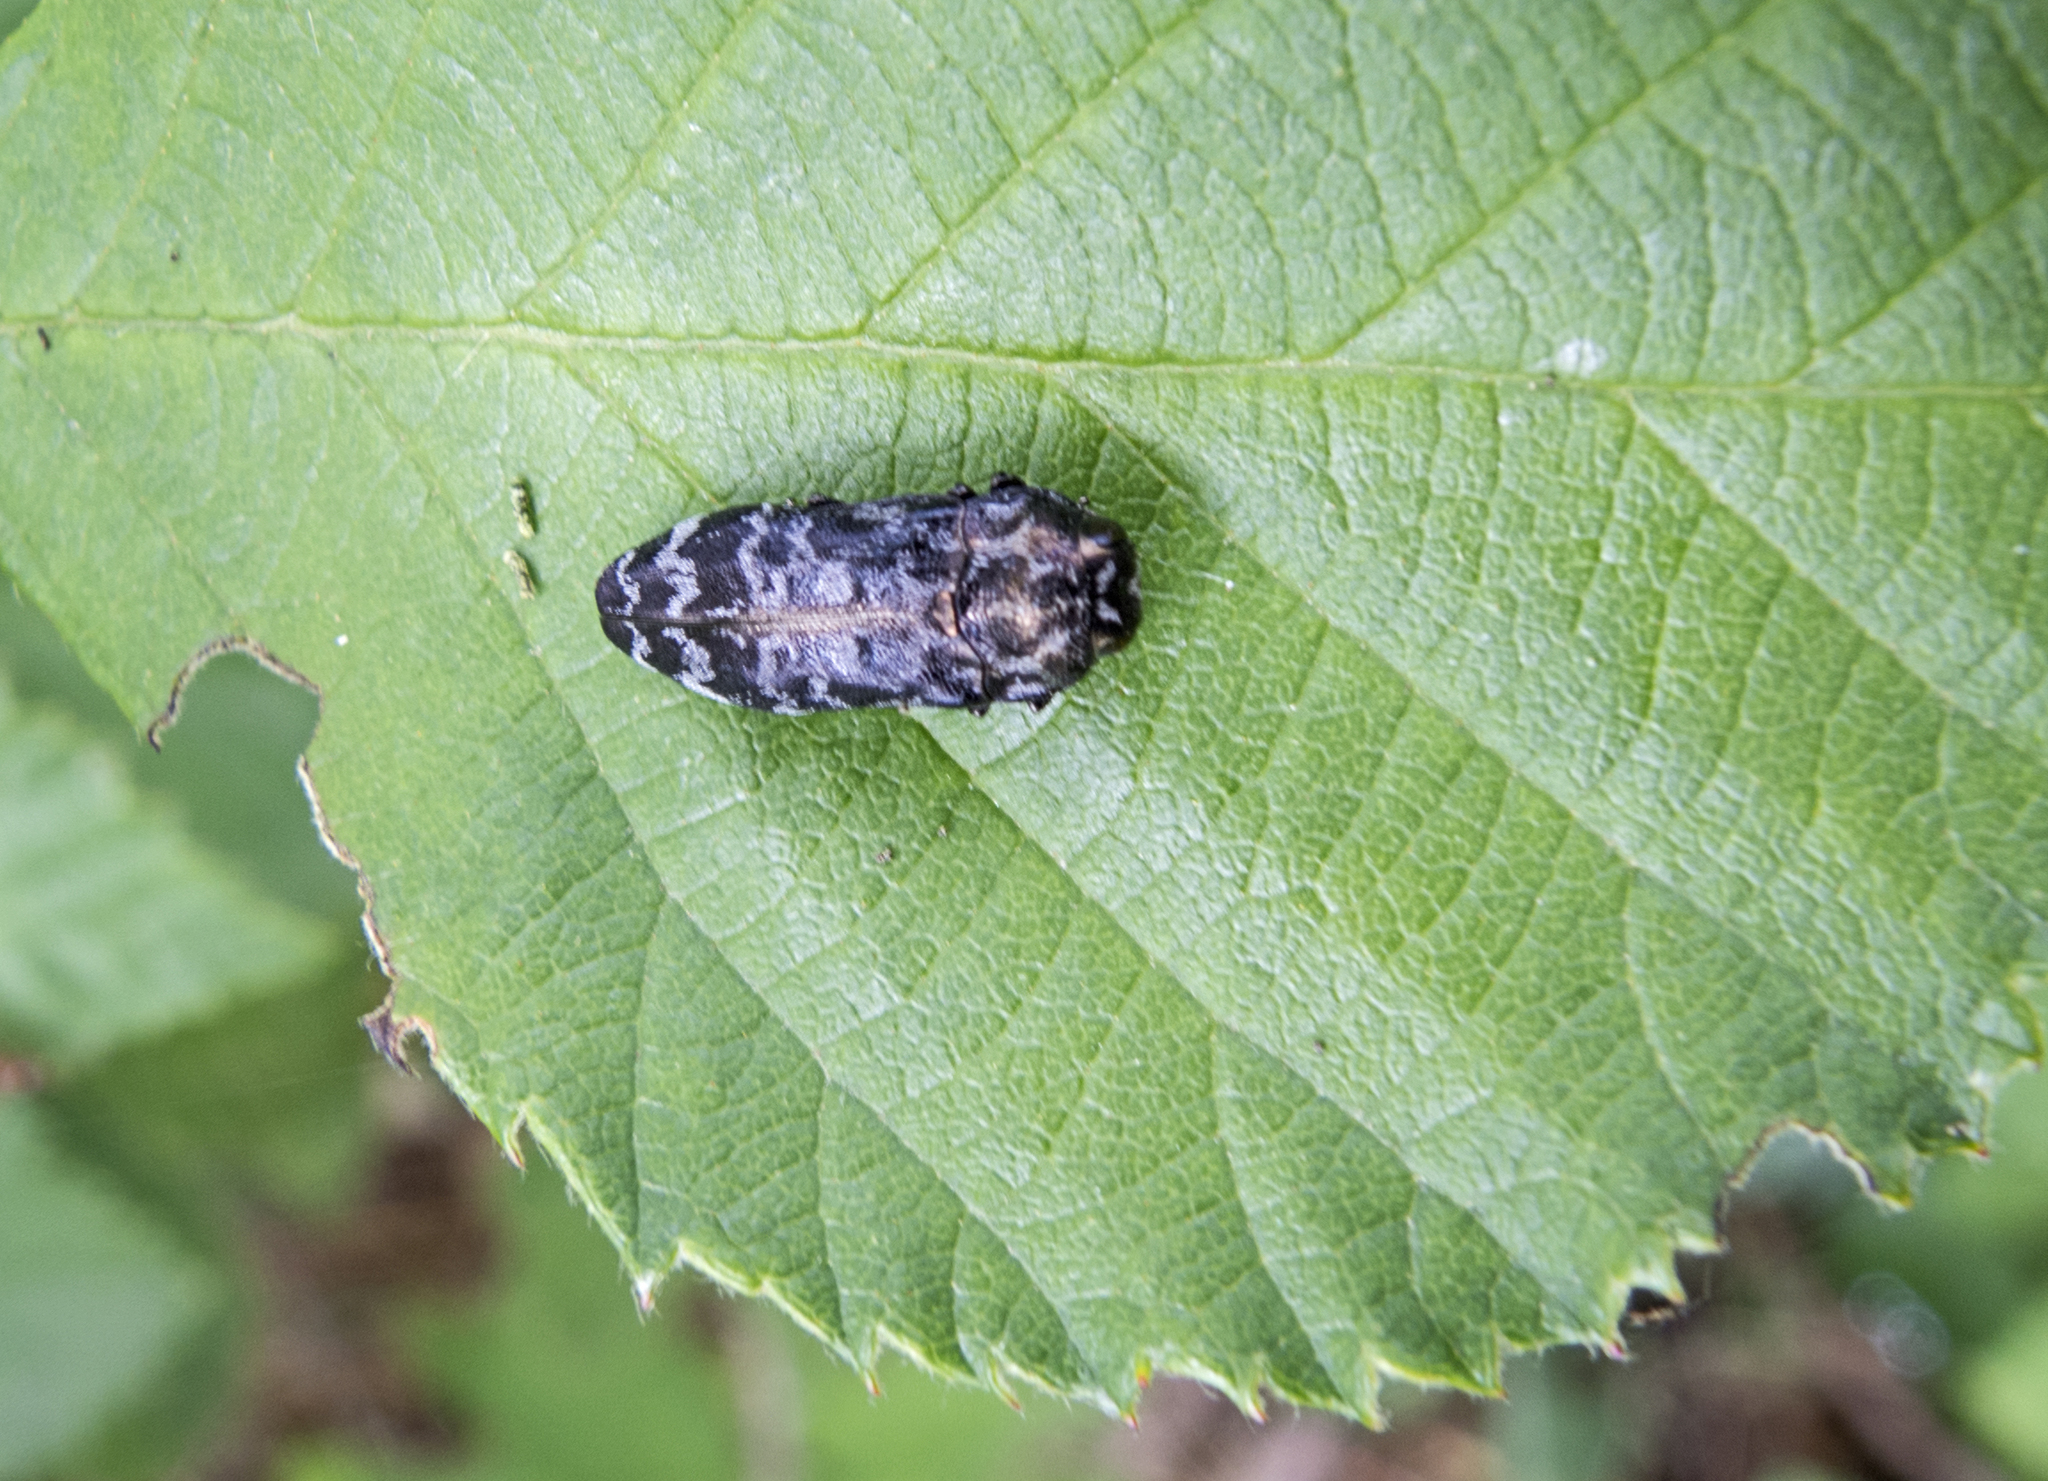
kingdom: Animalia
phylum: Arthropoda
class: Insecta
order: Coleoptera
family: Buprestidae
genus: Coraebus
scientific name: Coraebus rubi
